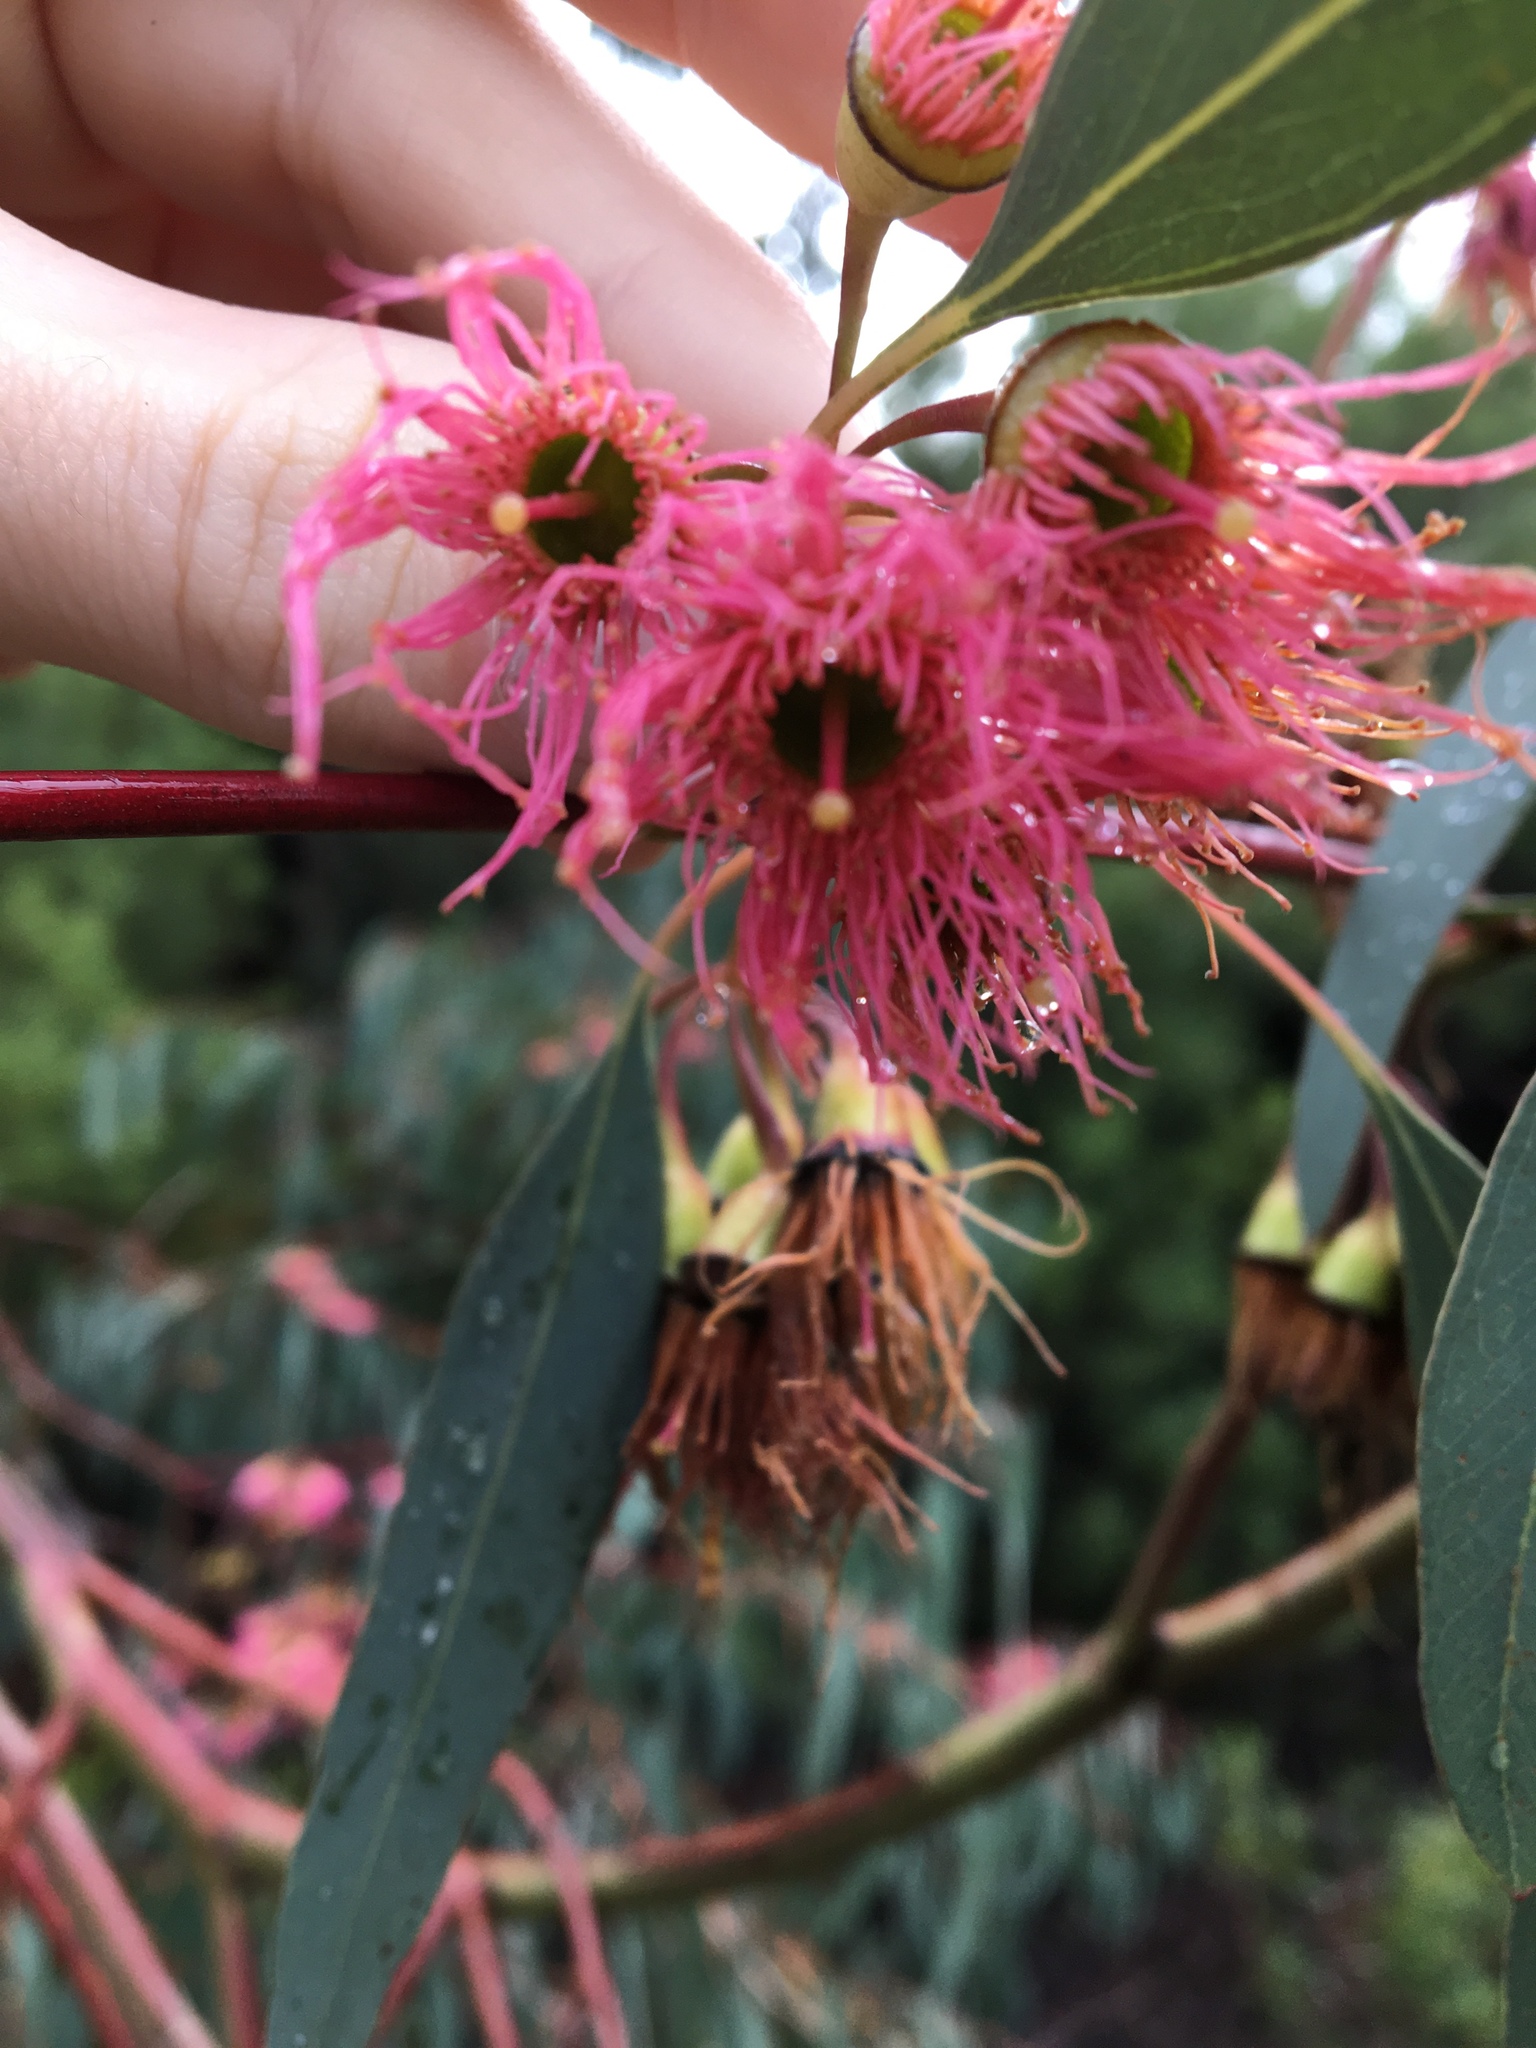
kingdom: Plantae
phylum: Tracheophyta
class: Magnoliopsida
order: Myrtales
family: Myrtaceae
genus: Eucalyptus
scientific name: Eucalyptus sideroxylon
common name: Red ironbark
